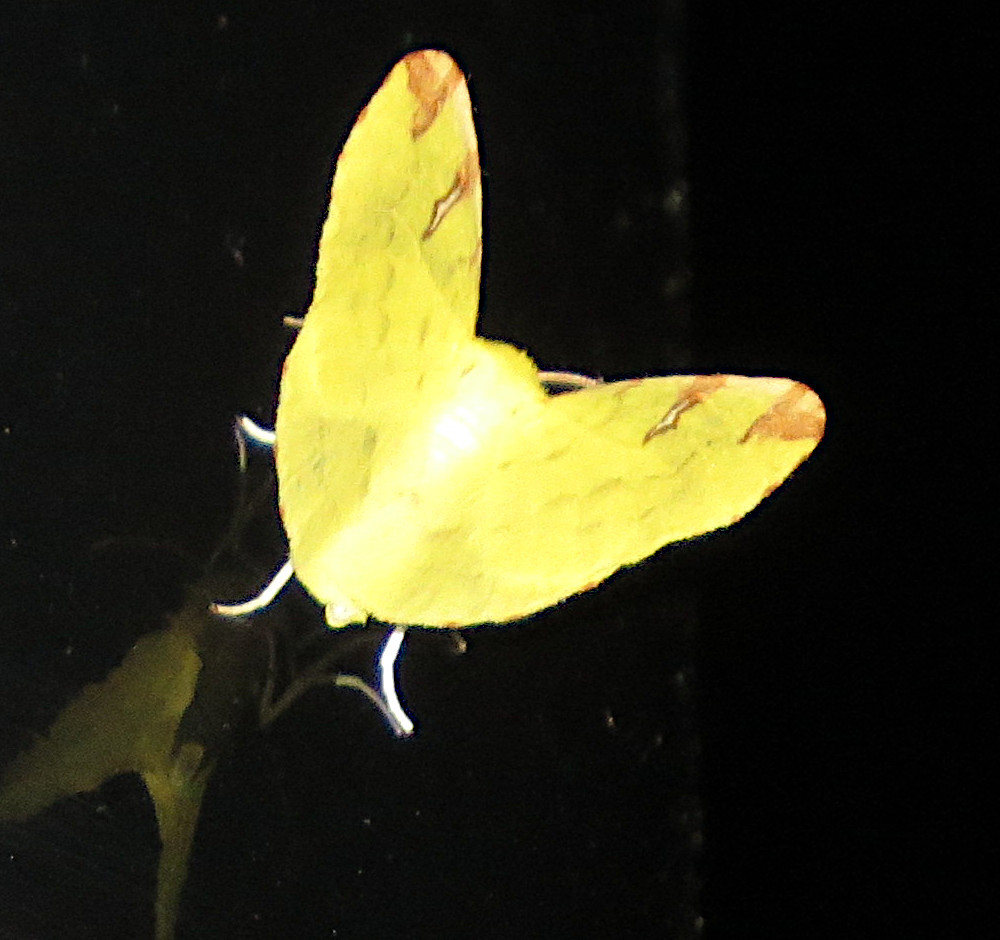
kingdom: Animalia
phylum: Arthropoda
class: Insecta
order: Lepidoptera
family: Geometridae
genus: Opisthograptis
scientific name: Opisthograptis luteolata
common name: Brimstone moth
